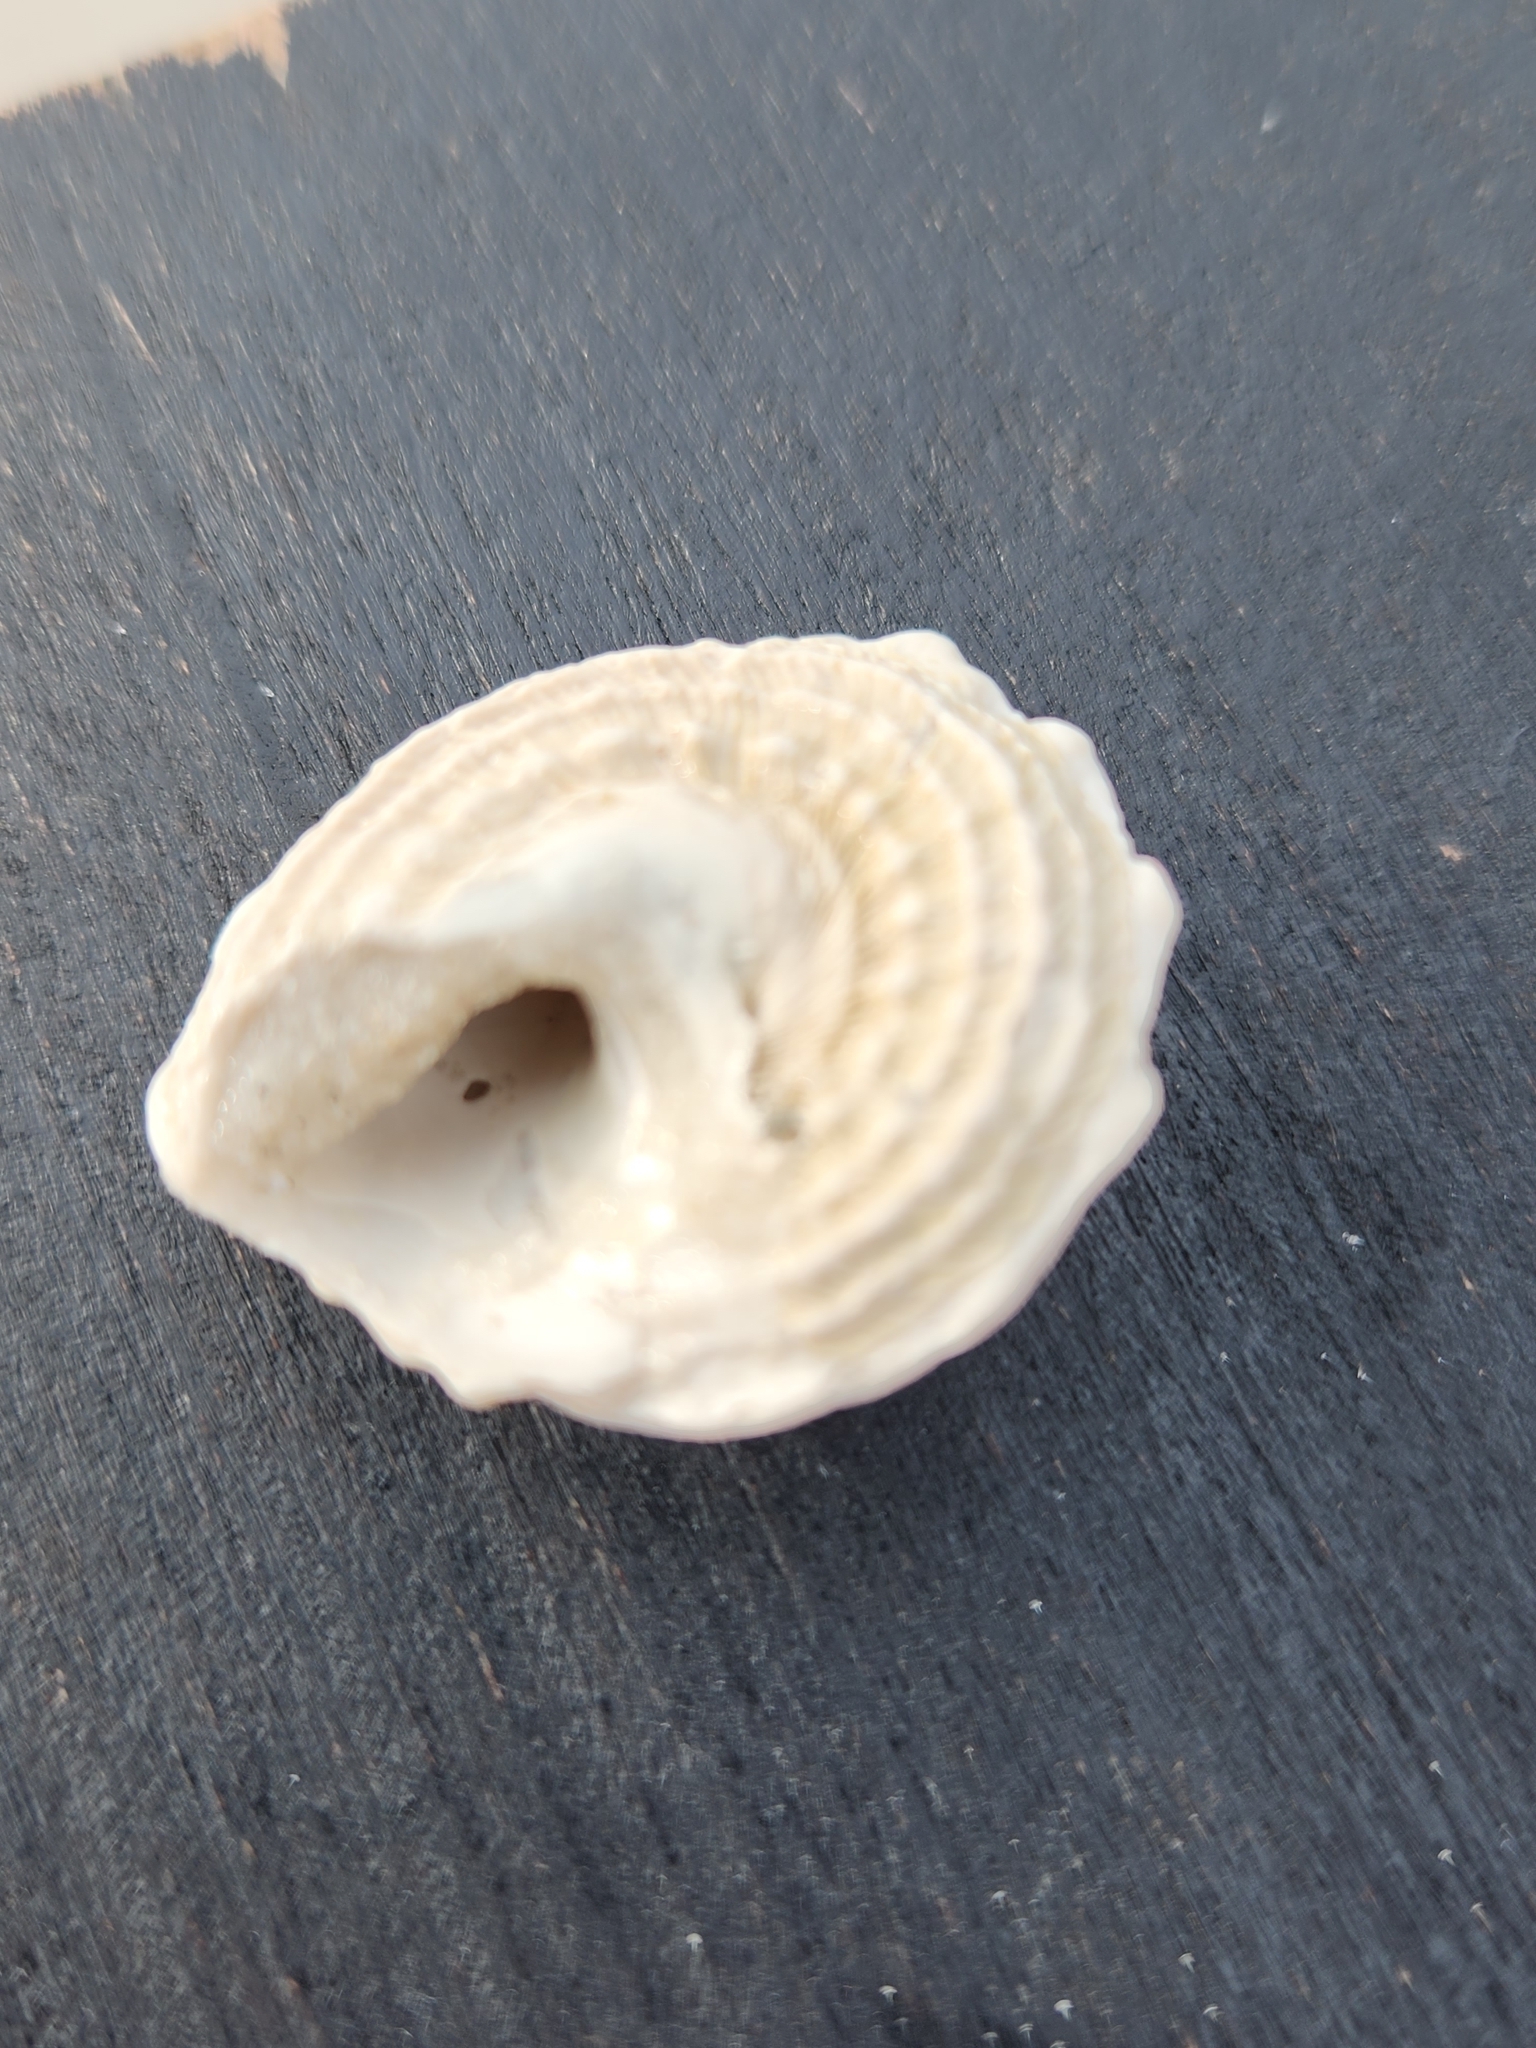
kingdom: Animalia
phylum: Mollusca
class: Gastropoda
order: Trochida
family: Turbinidae
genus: Lithopoma
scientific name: Lithopoma phoebium
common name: Long-spined starsnail
